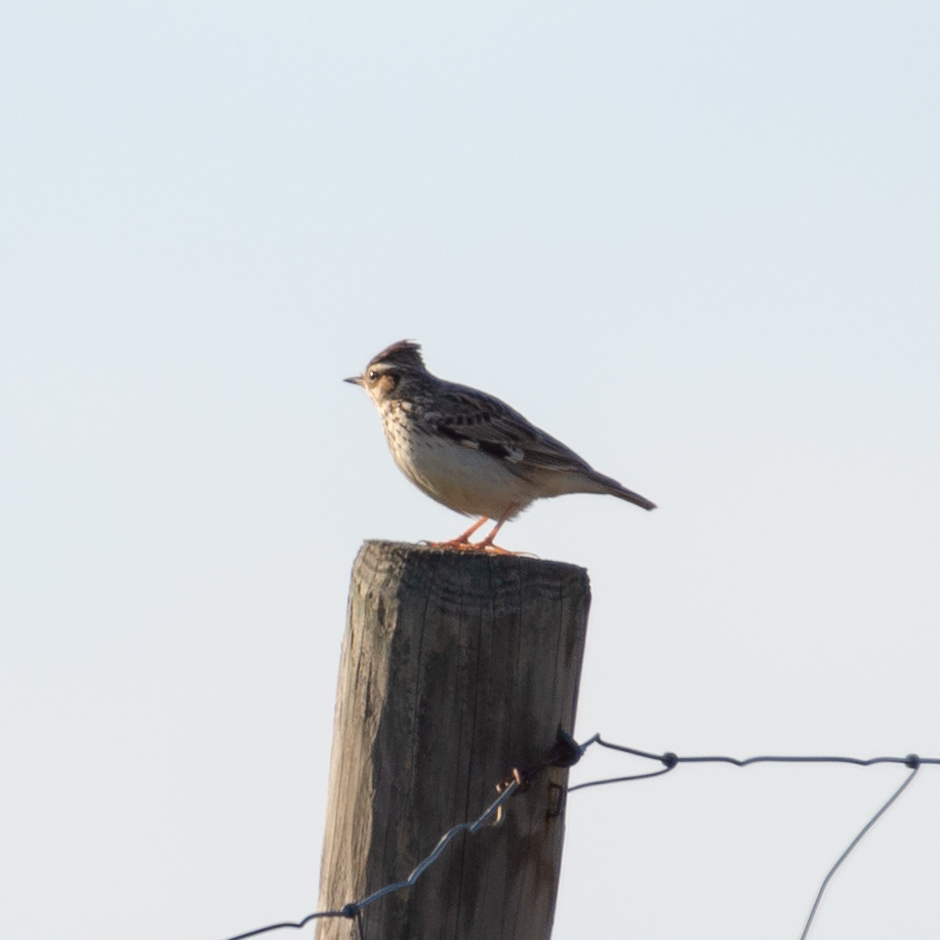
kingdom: Animalia
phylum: Chordata
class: Aves
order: Passeriformes
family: Alaudidae
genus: Lullula
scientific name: Lullula arborea
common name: Woodlark
